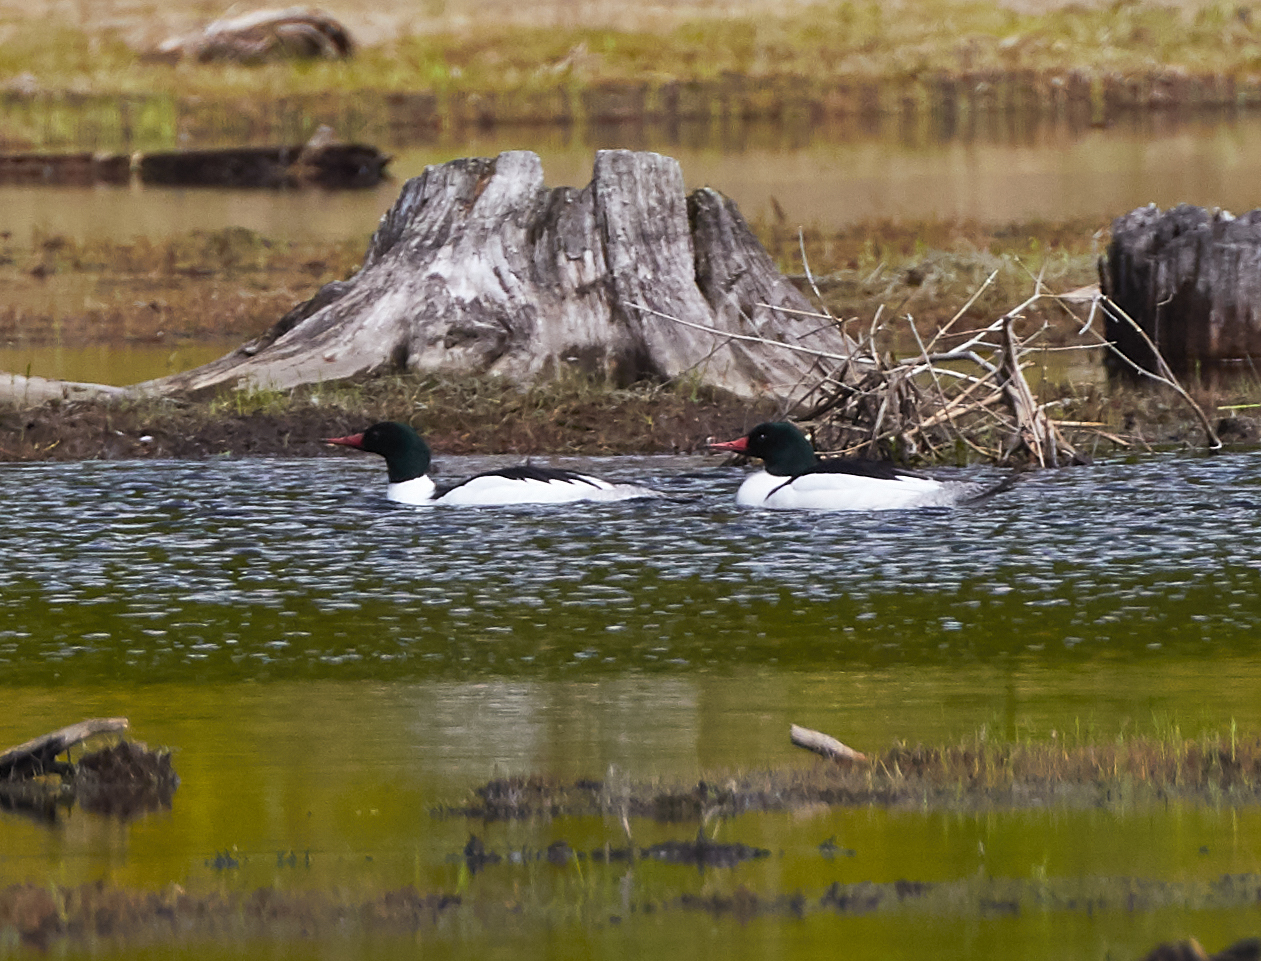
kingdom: Animalia
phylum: Chordata
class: Aves
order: Anseriformes
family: Anatidae
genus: Mergus
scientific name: Mergus merganser
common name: Common merganser
